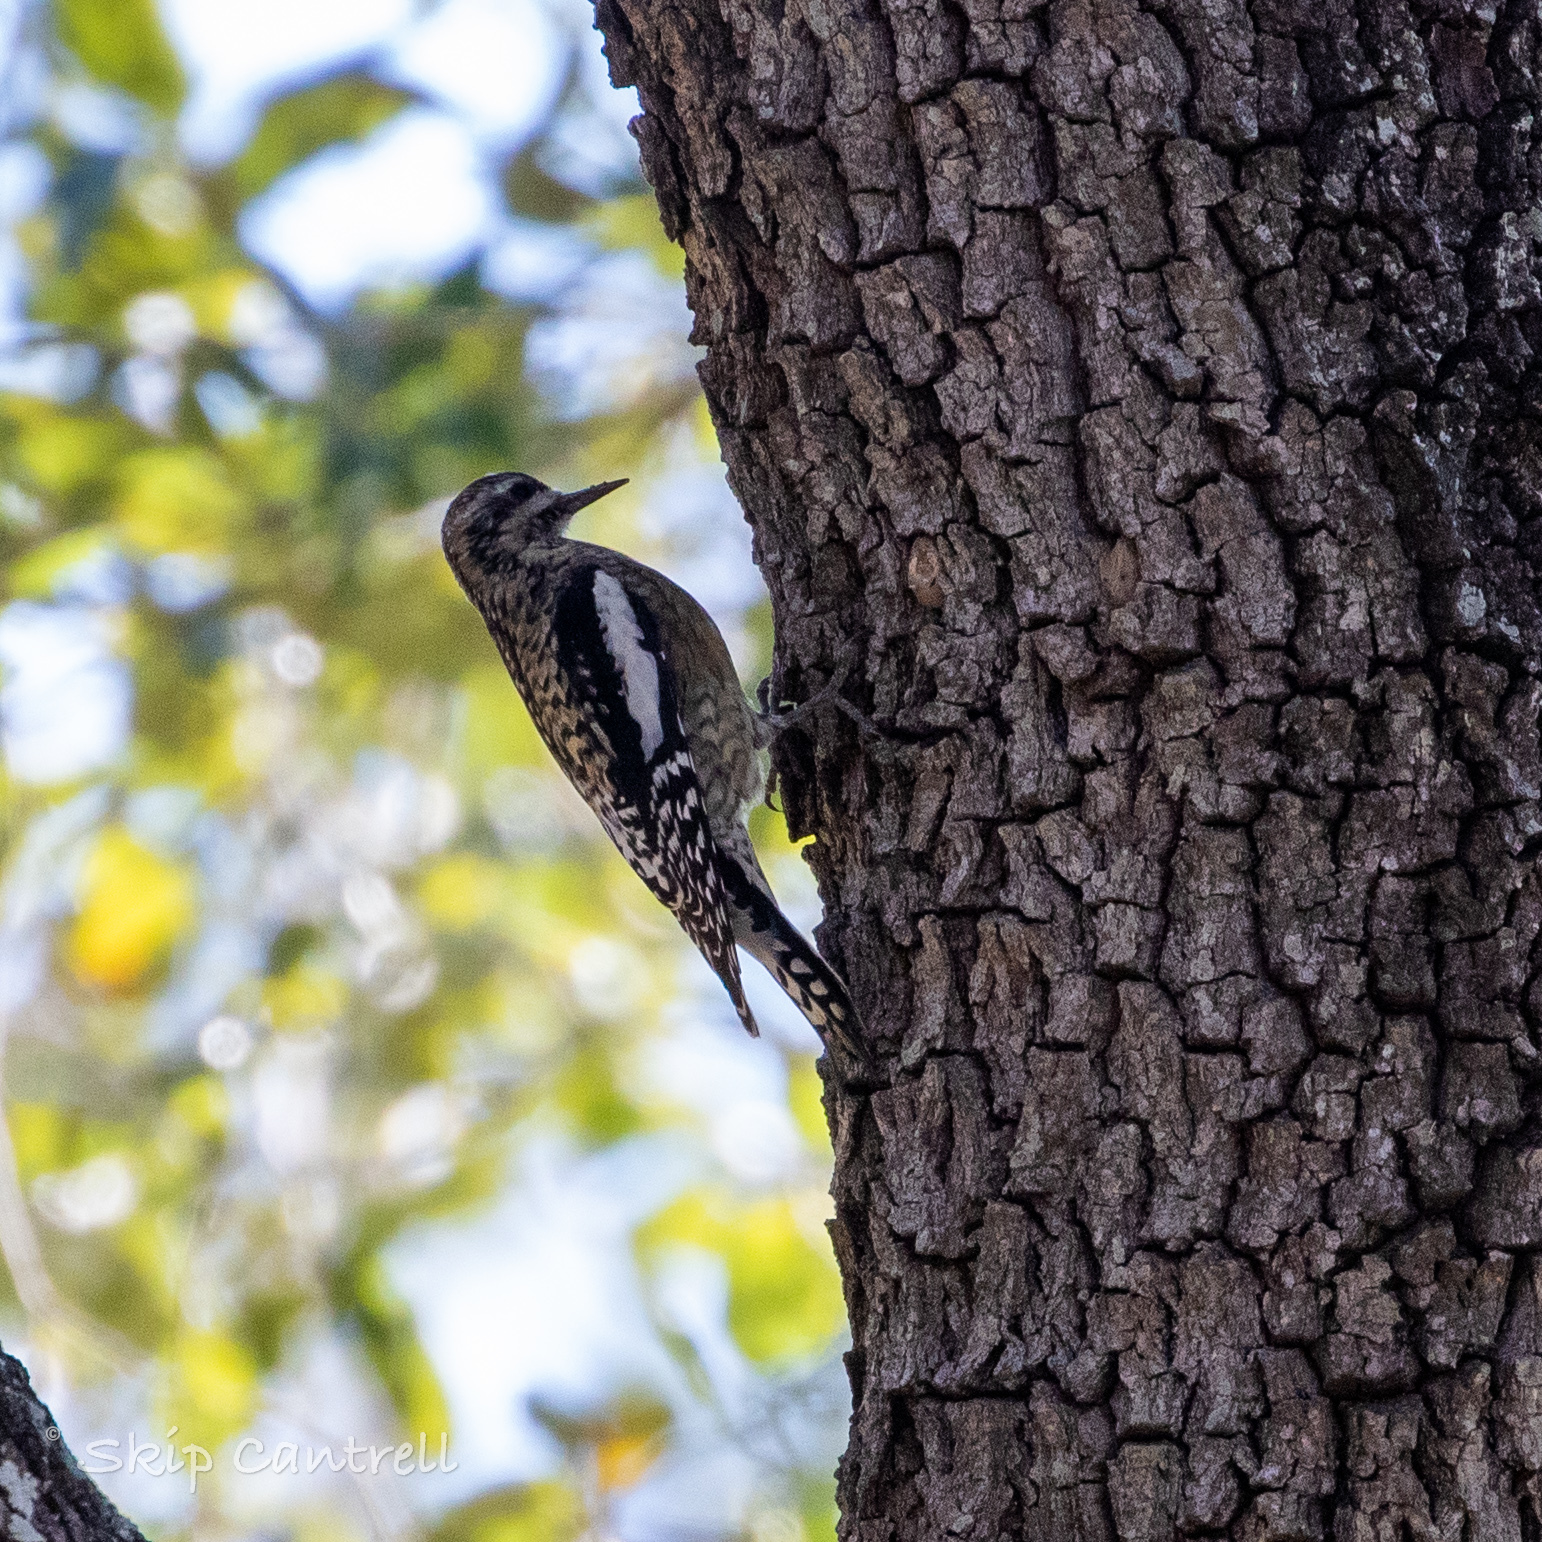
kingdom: Animalia
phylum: Chordata
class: Aves
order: Piciformes
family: Picidae
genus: Sphyrapicus
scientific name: Sphyrapicus varius
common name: Yellow-bellied sapsucker
